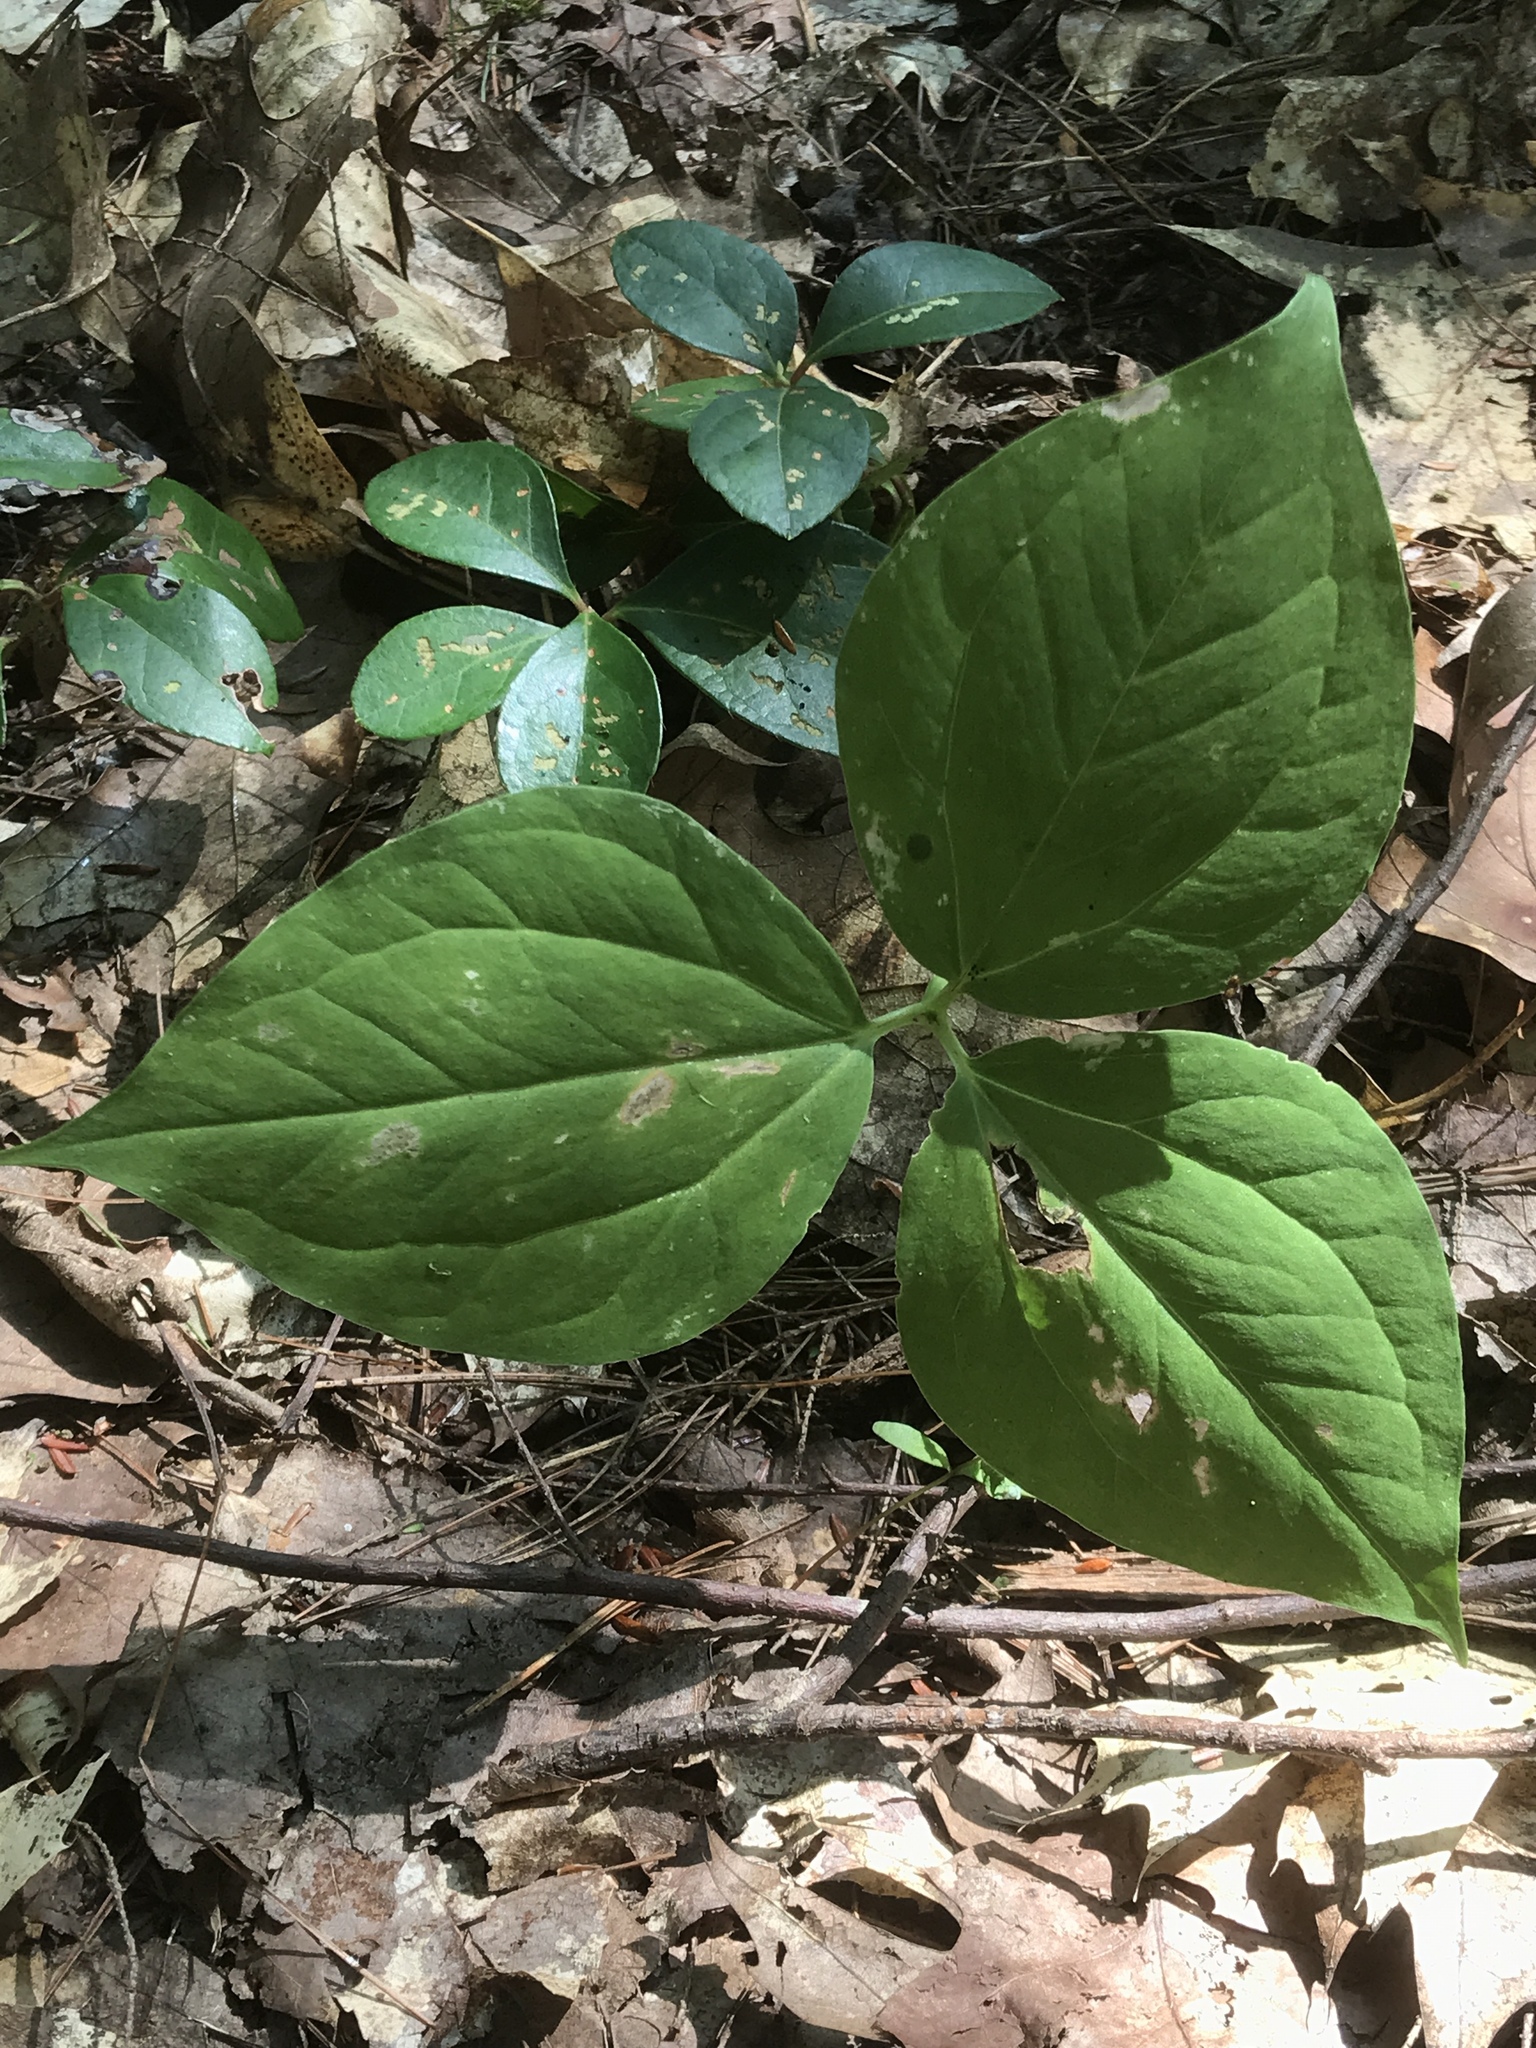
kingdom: Plantae
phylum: Tracheophyta
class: Liliopsida
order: Liliales
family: Melanthiaceae
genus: Trillium
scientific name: Trillium undulatum
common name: Paint trillium
